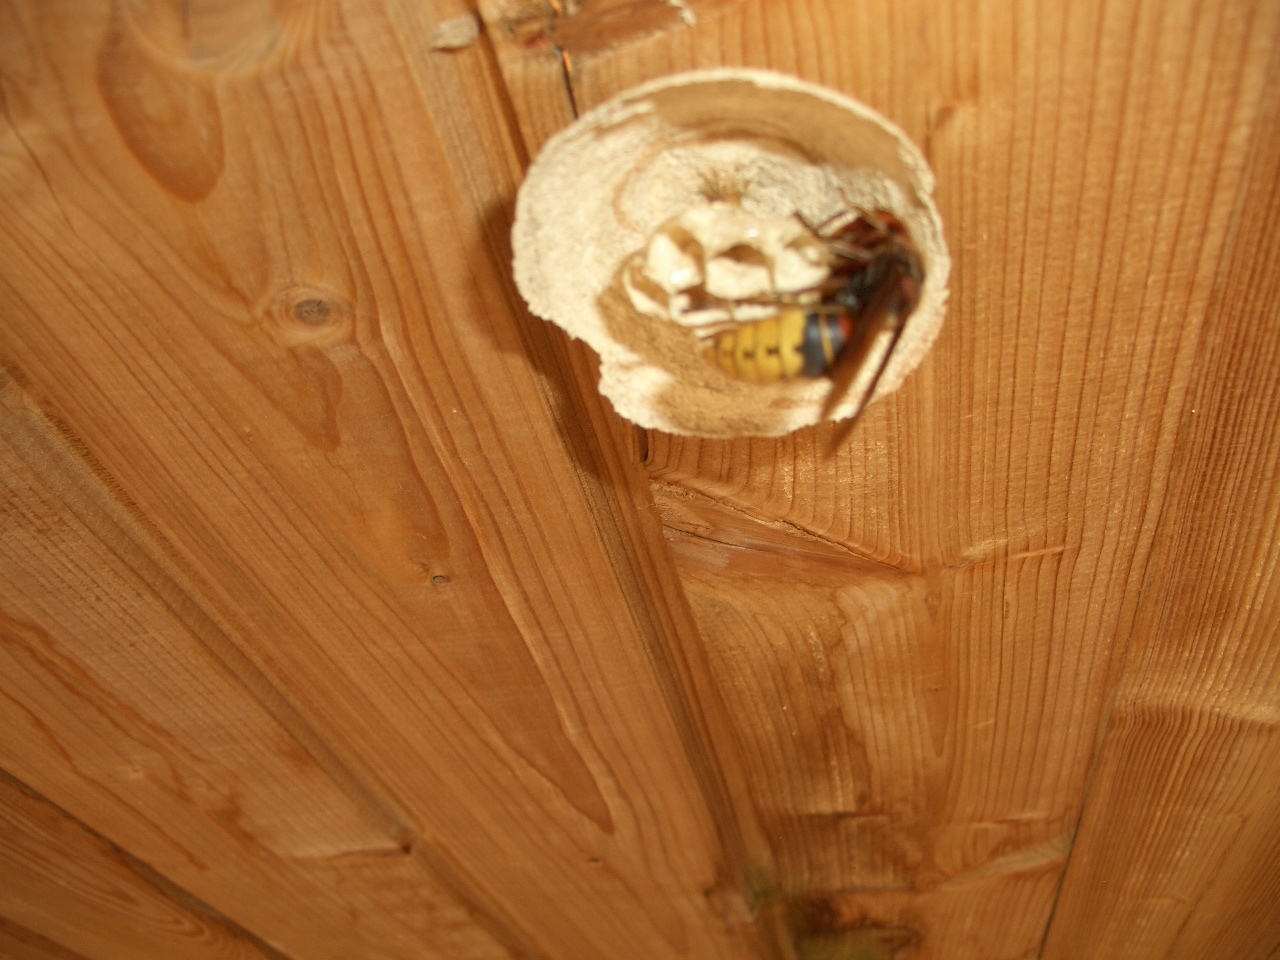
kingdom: Animalia
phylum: Arthropoda
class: Insecta
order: Hymenoptera
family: Vespidae
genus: Vespa
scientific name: Vespa crabro
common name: Hornet
